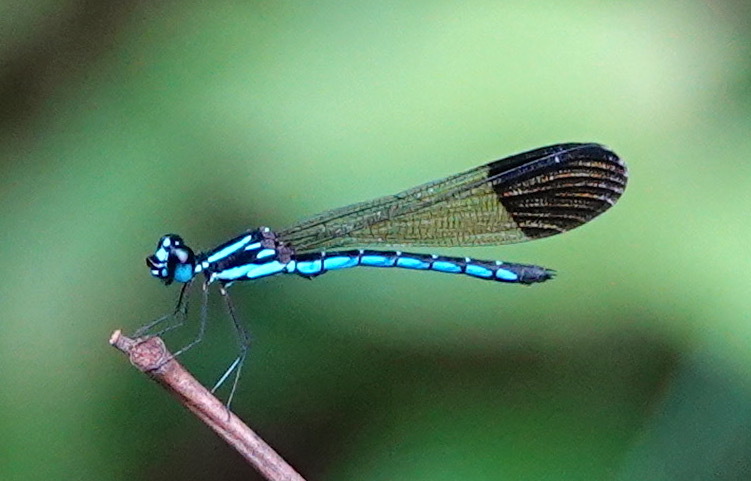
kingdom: Animalia
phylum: Arthropoda
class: Insecta
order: Odonata
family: Chlorocyphidae
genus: Rhinocypha
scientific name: Rhinocypha humeralis
